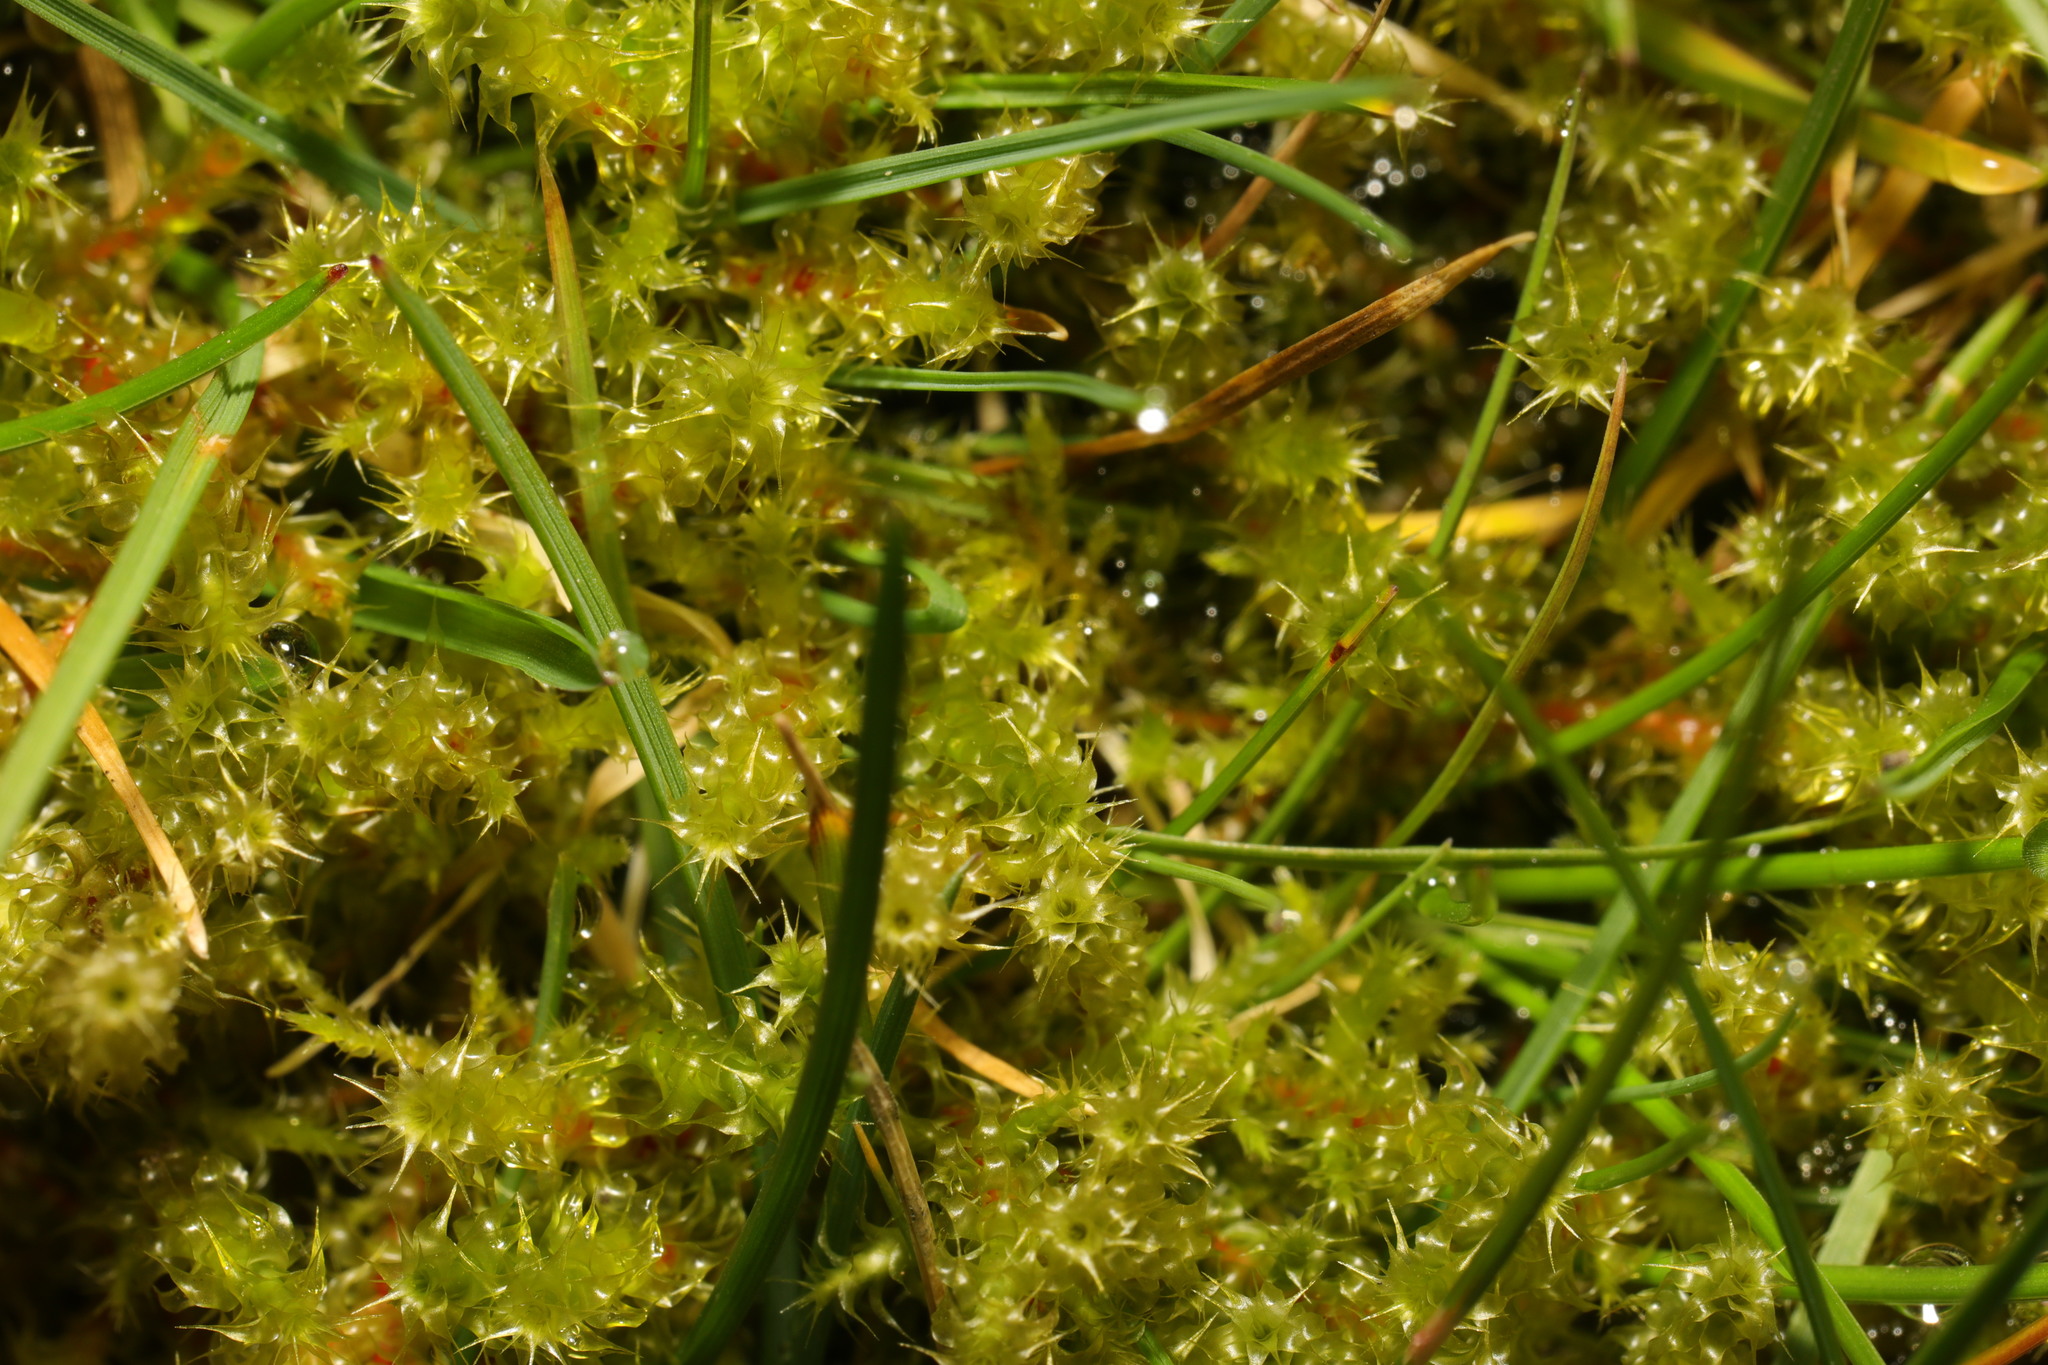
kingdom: Plantae
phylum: Bryophyta
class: Bryopsida
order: Hypnales
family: Hylocomiaceae
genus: Rhytidiadelphus
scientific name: Rhytidiadelphus squarrosus
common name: Springy turf-moss
